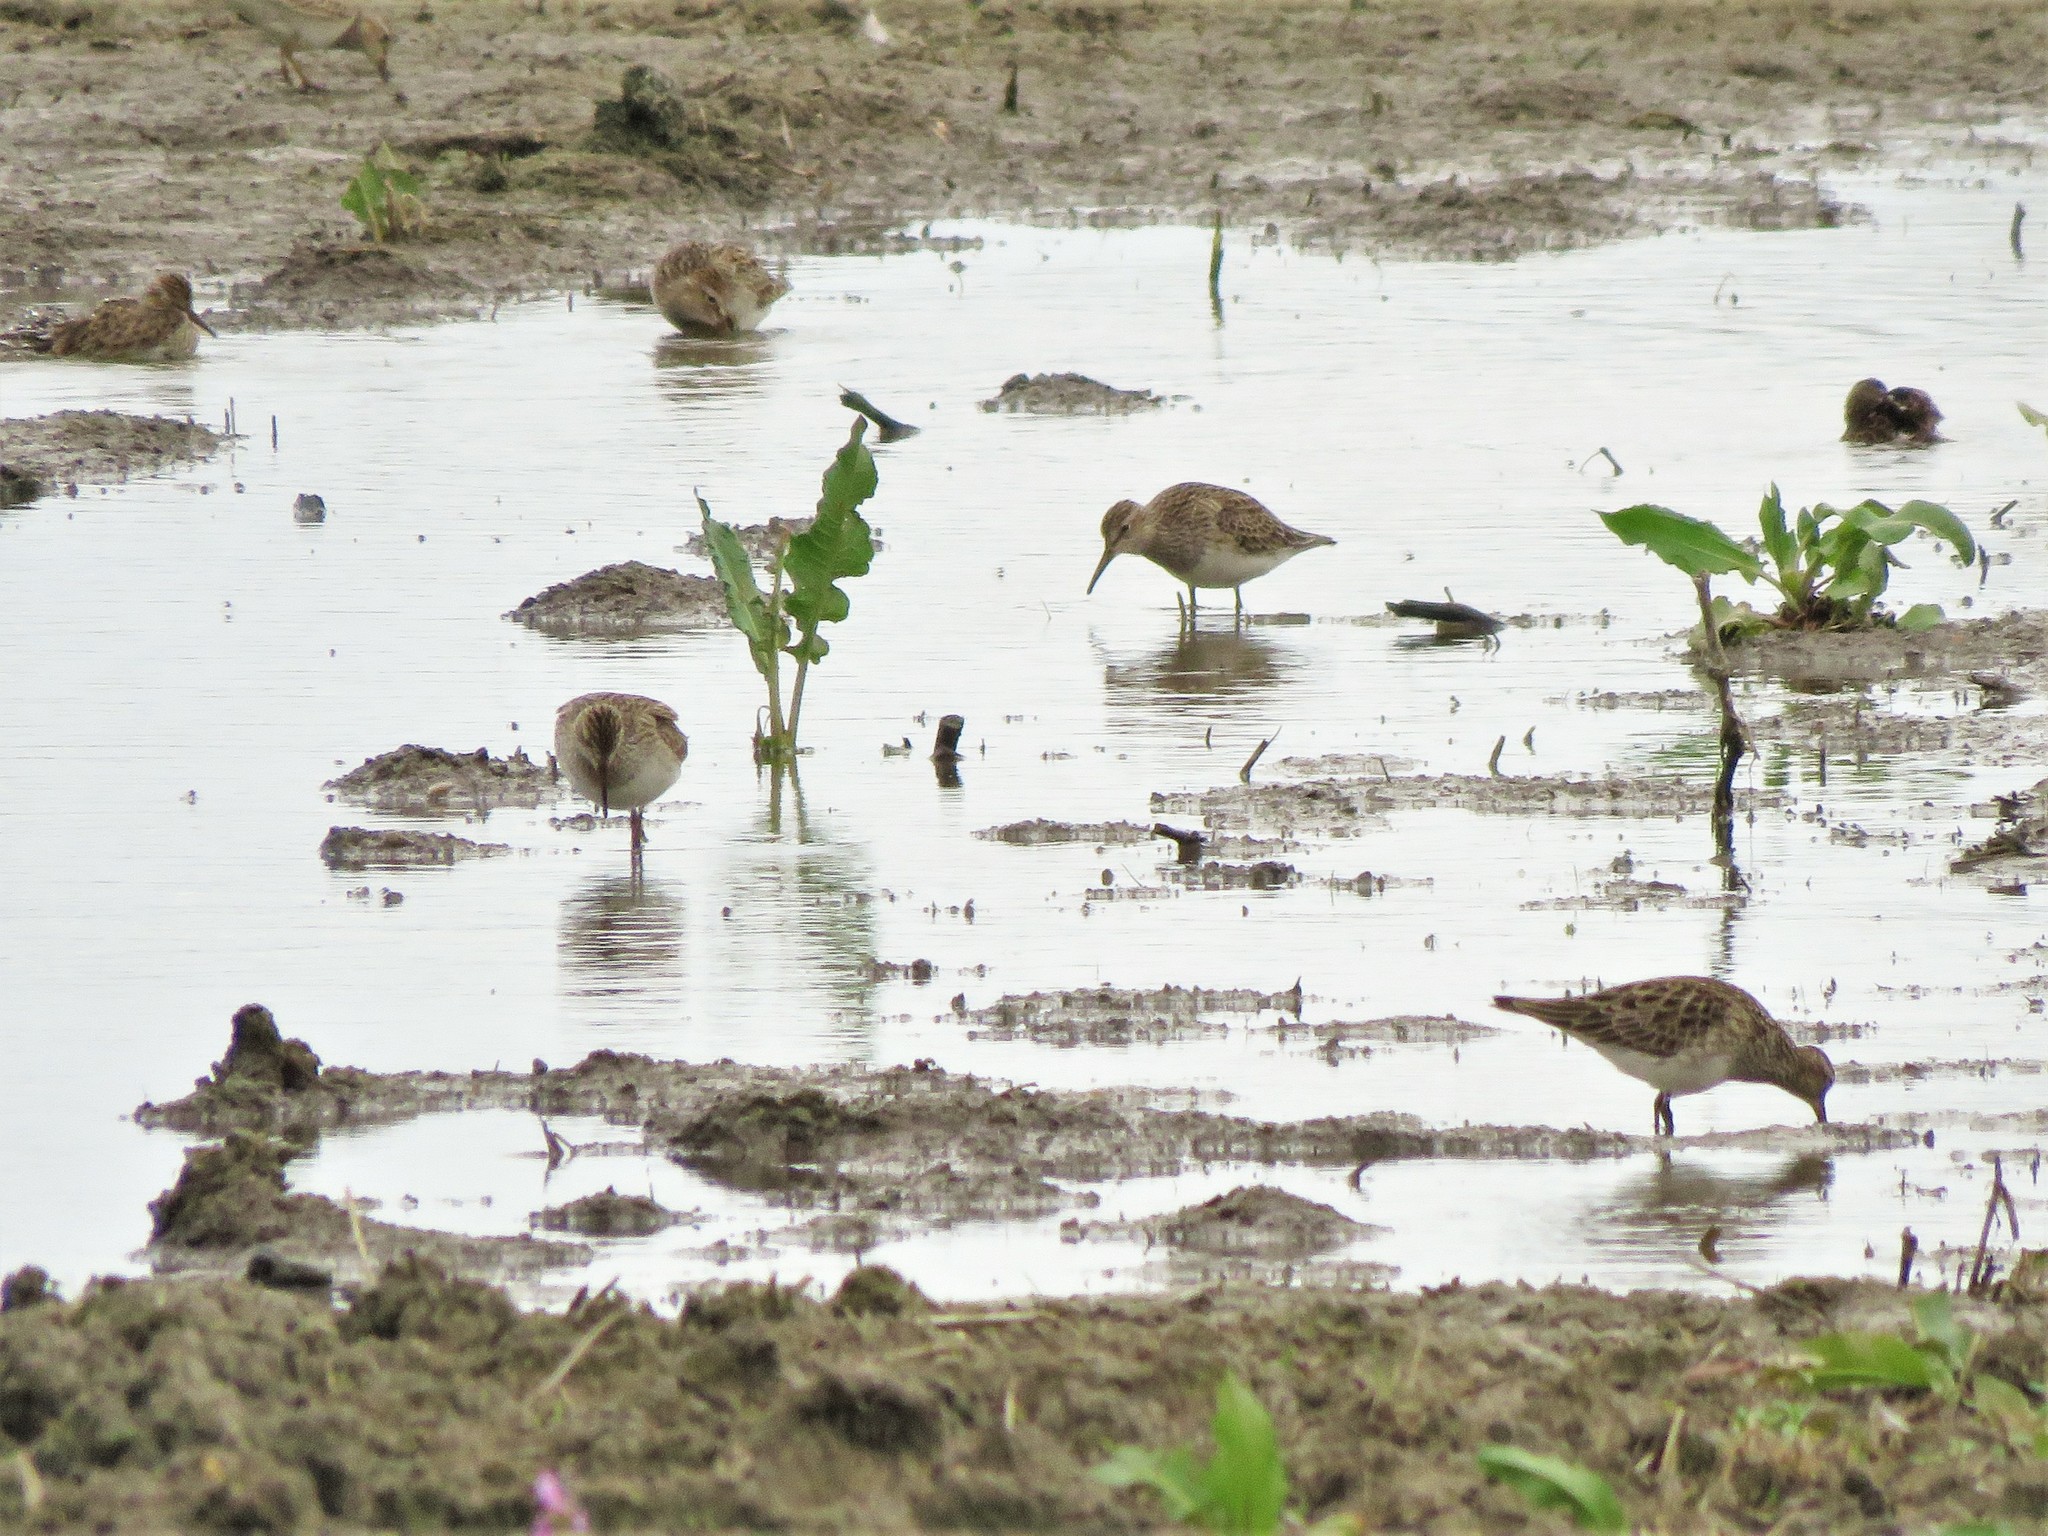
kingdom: Animalia
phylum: Chordata
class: Aves
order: Charadriiformes
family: Scolopacidae
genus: Calidris
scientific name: Calidris melanotos
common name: Pectoral sandpiper
